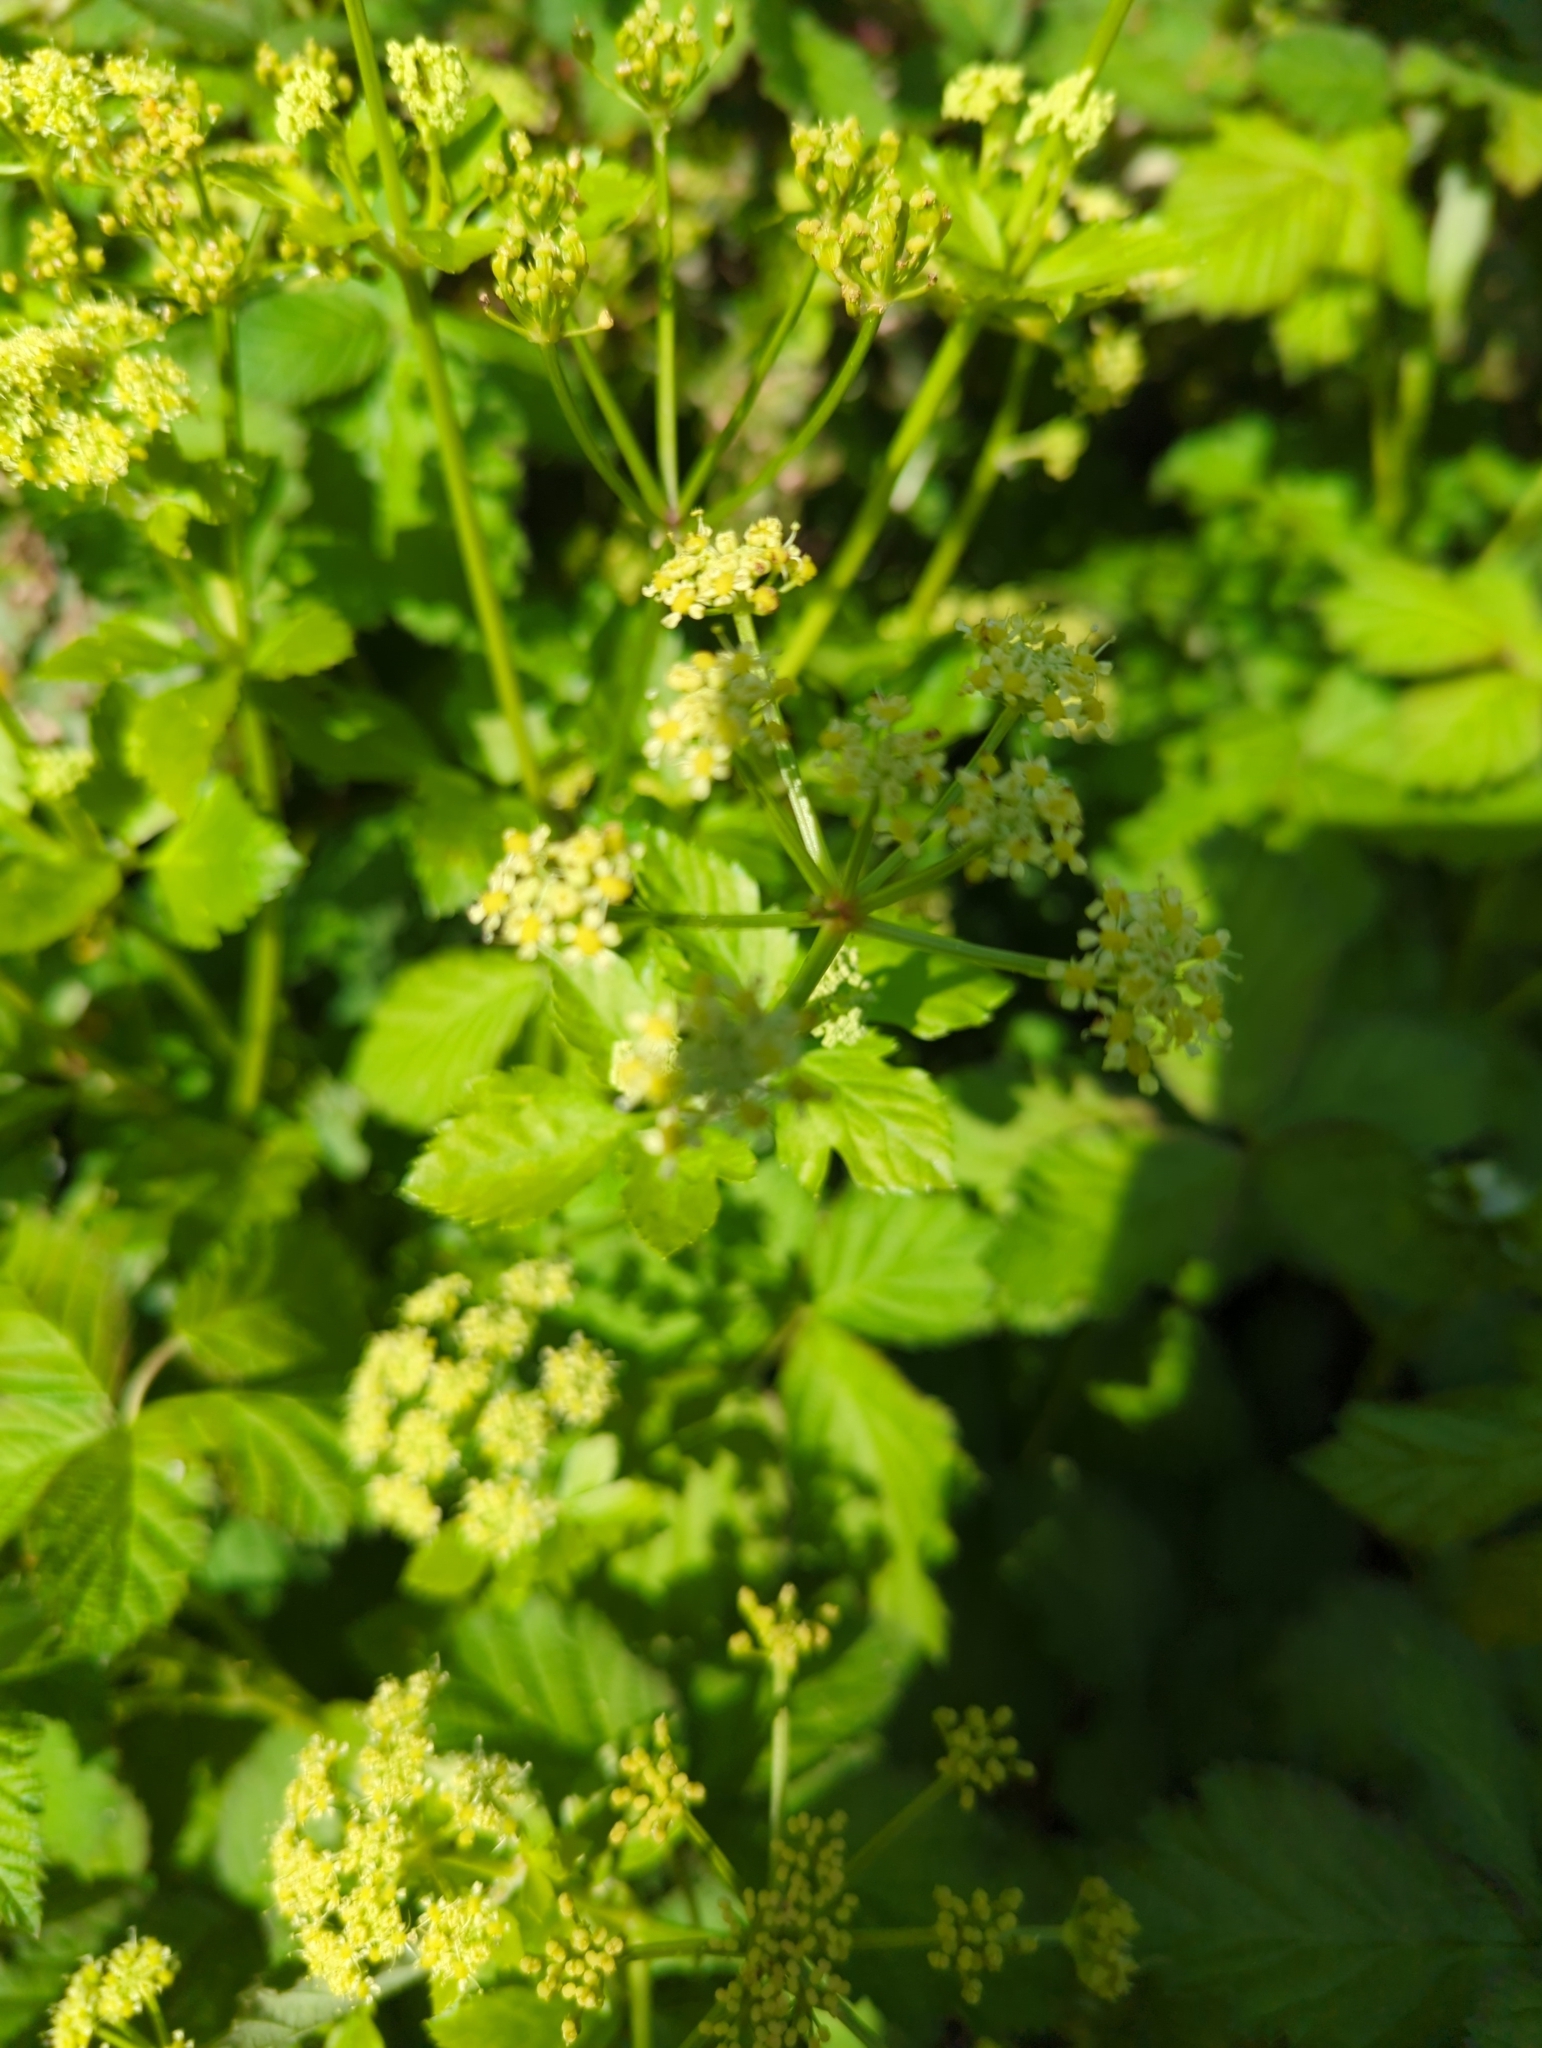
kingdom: Plantae
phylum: Tracheophyta
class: Magnoliopsida
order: Apiales
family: Apiaceae
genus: Smyrnium
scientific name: Smyrnium olusatrum
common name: Alexanders
